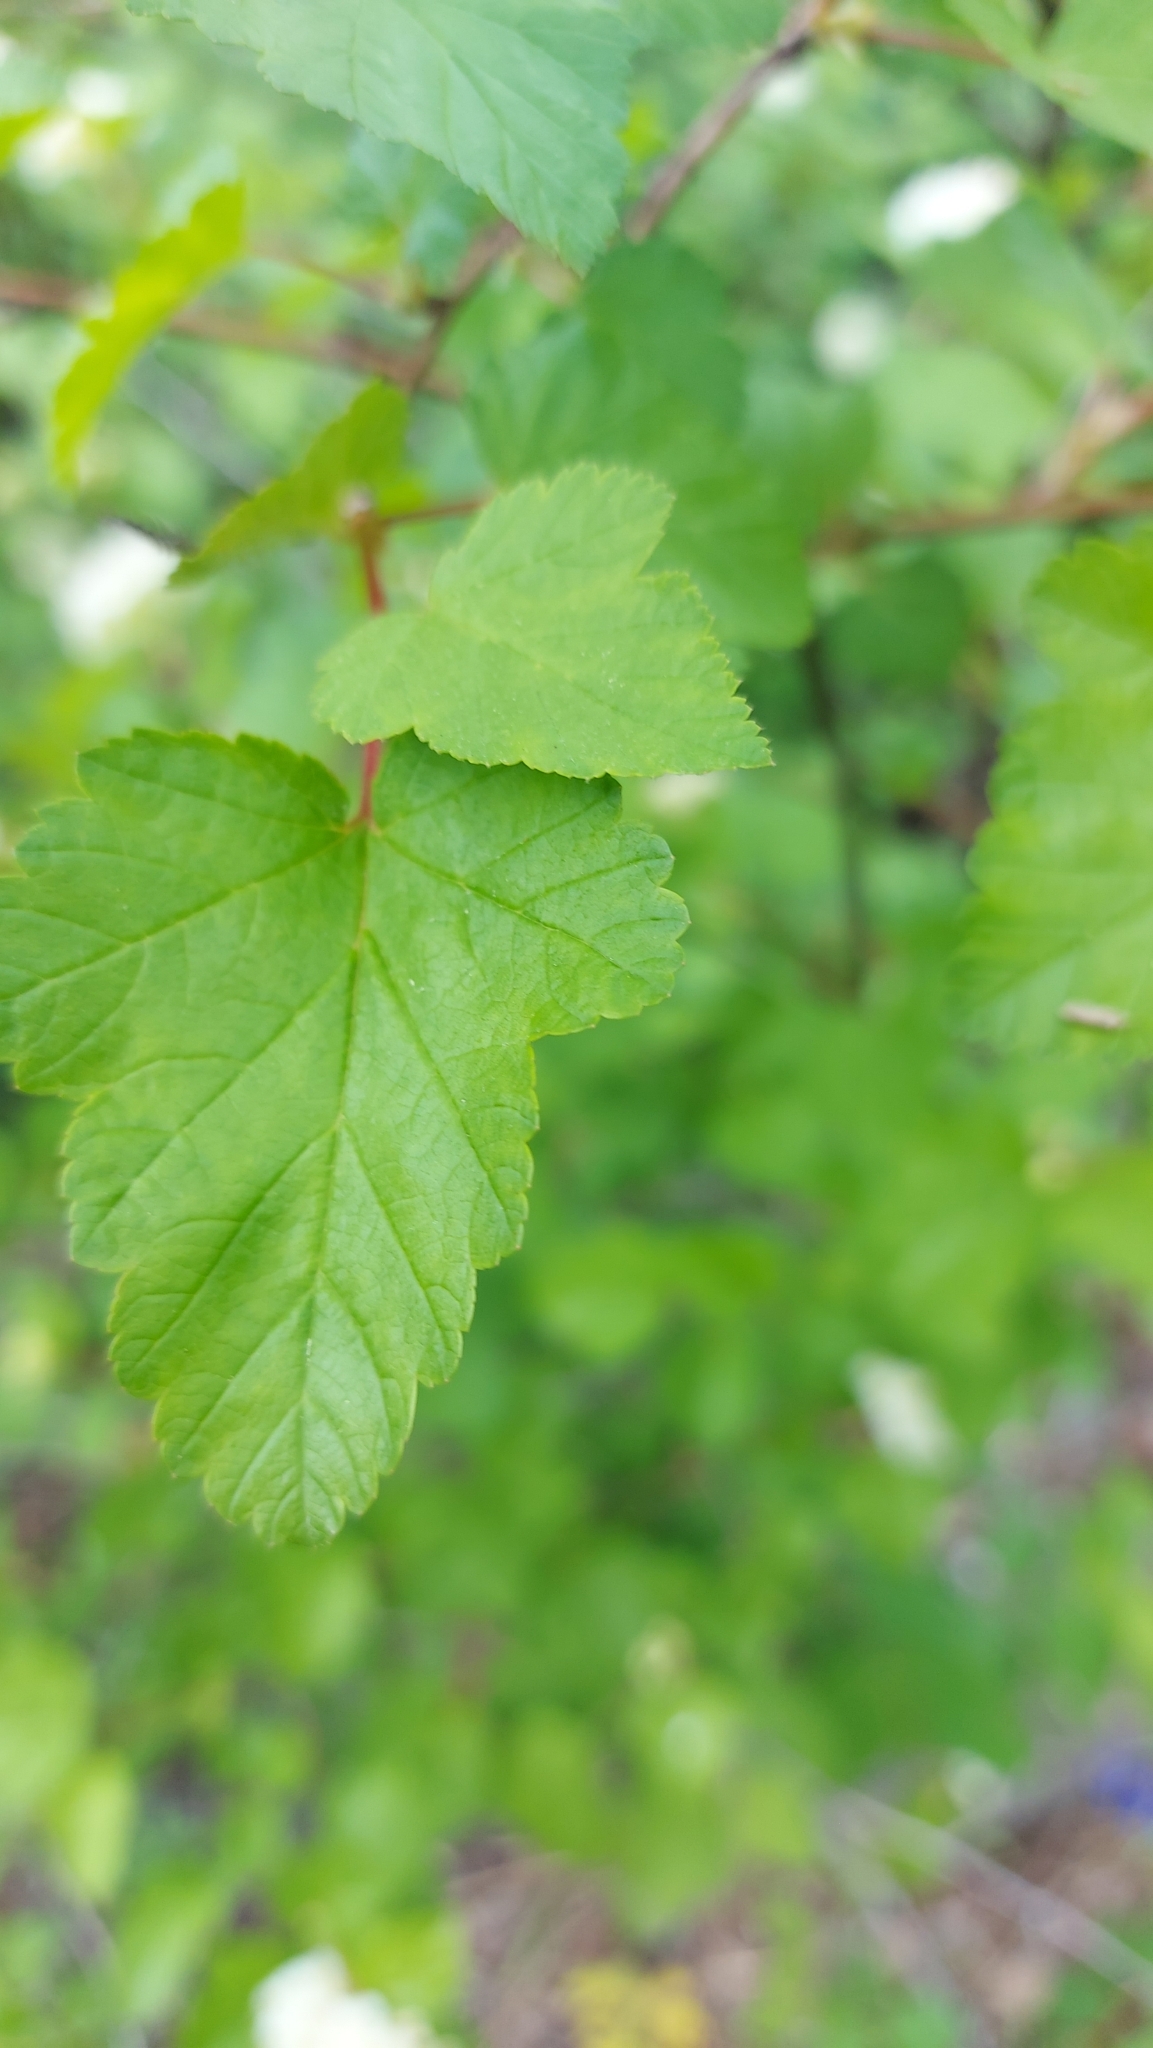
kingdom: Plantae
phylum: Tracheophyta
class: Magnoliopsida
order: Rosales
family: Rosaceae
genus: Physocarpus
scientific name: Physocarpus malvaceus
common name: Mallow ninebark
